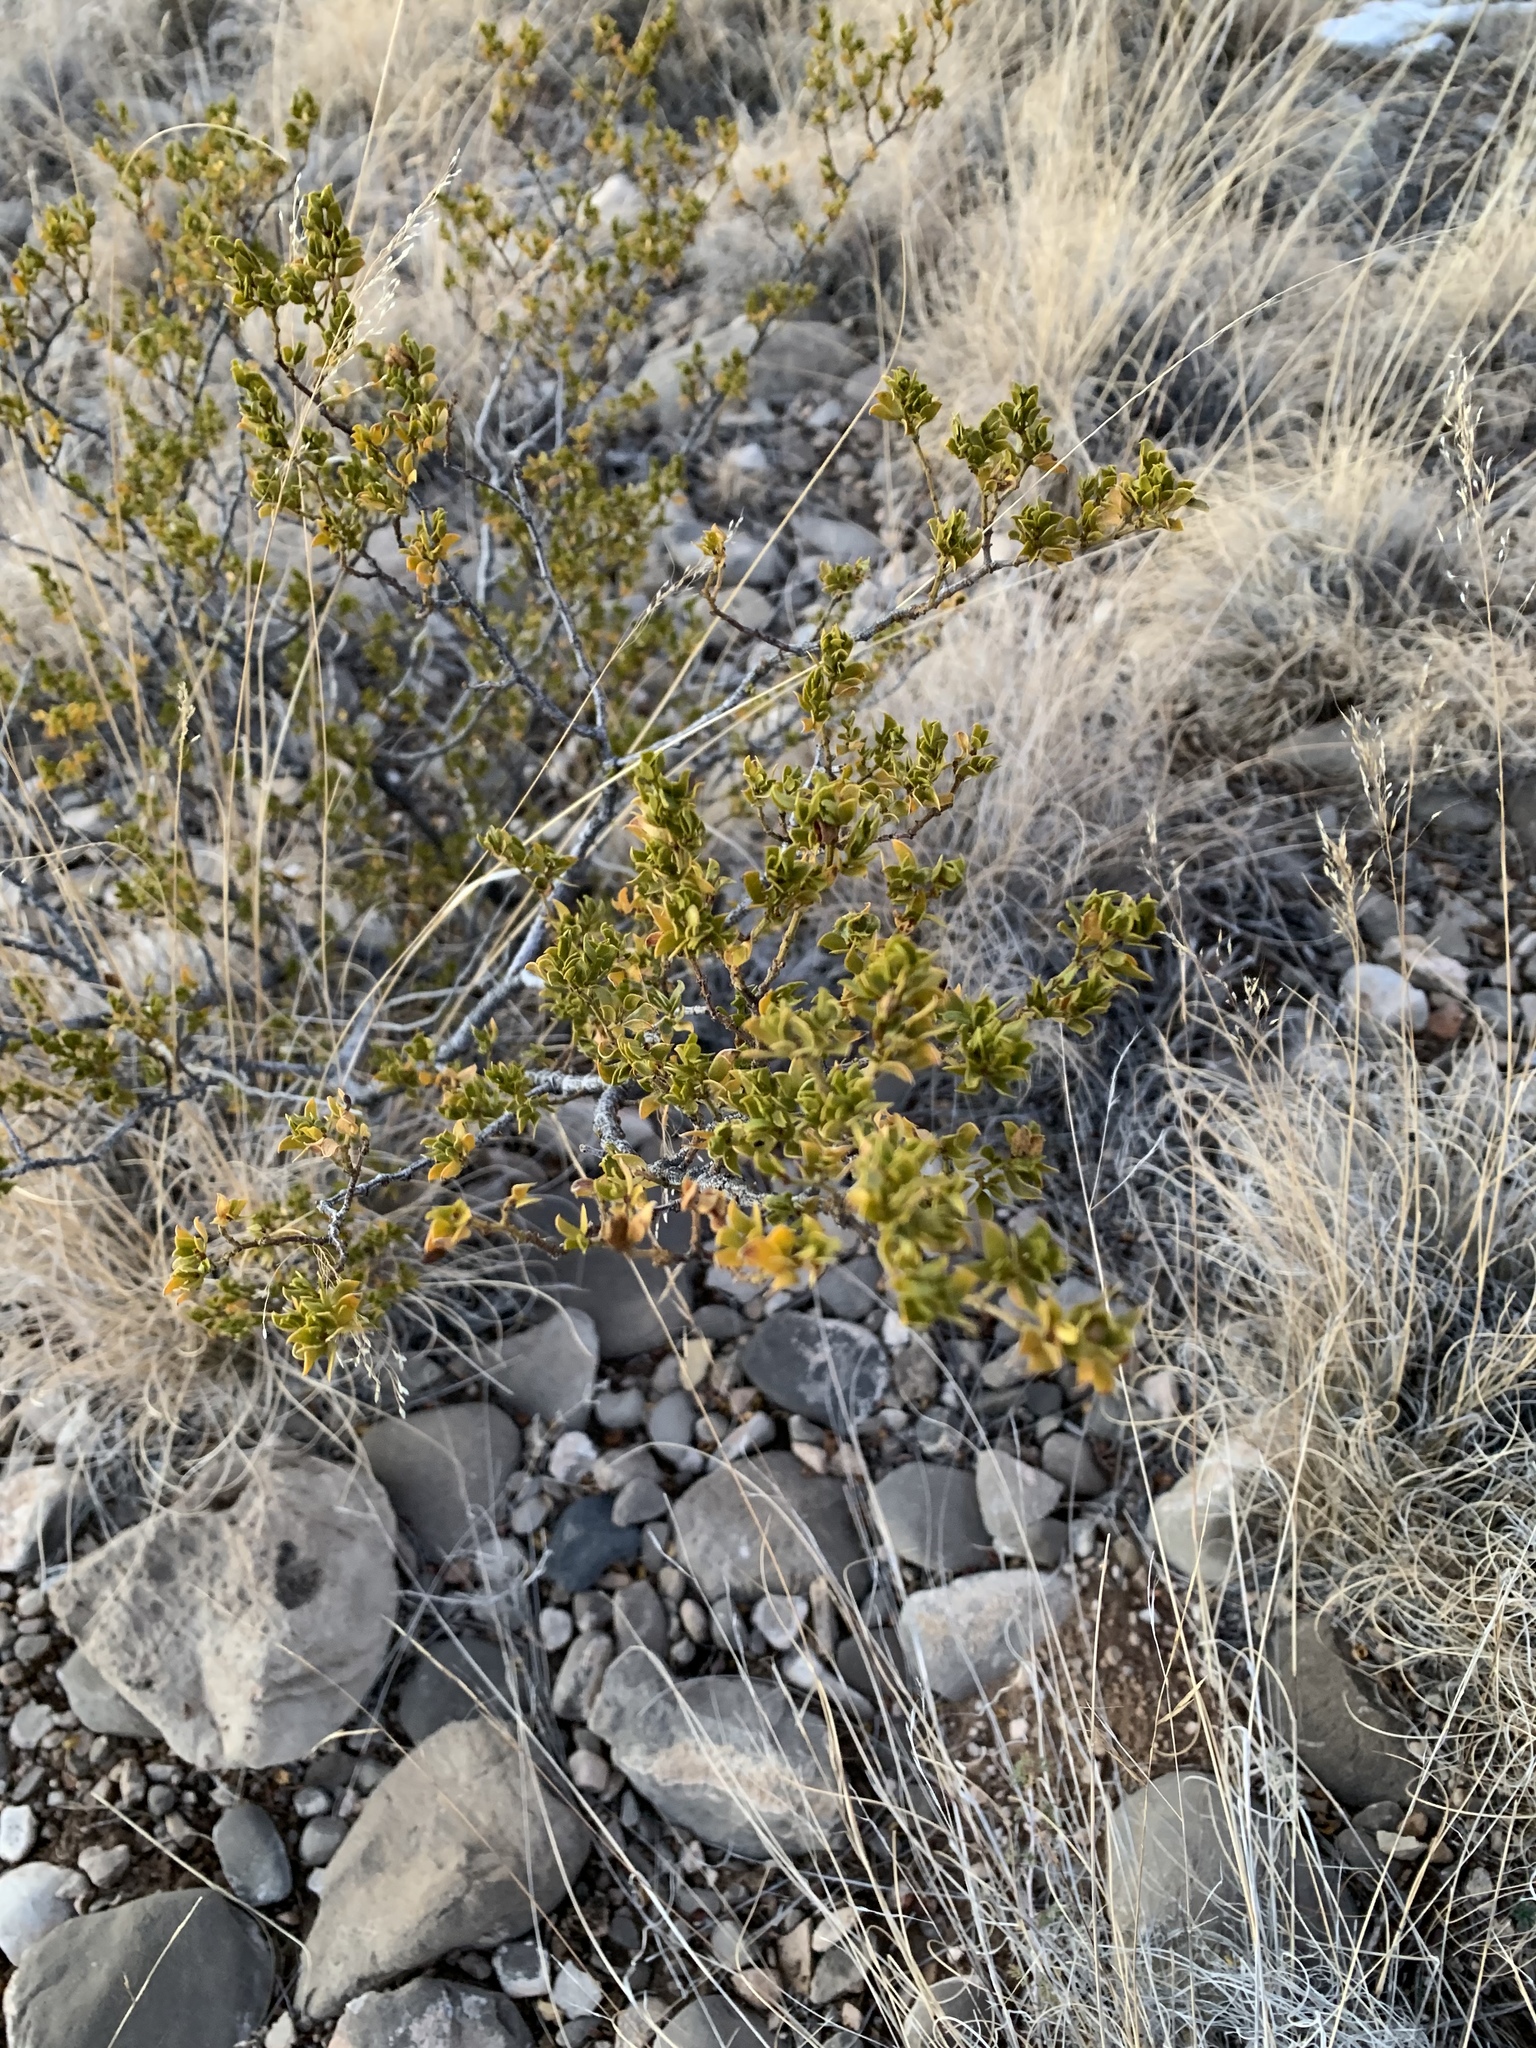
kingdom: Plantae
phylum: Tracheophyta
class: Magnoliopsida
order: Zygophyllales
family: Zygophyllaceae
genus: Larrea
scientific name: Larrea tridentata
